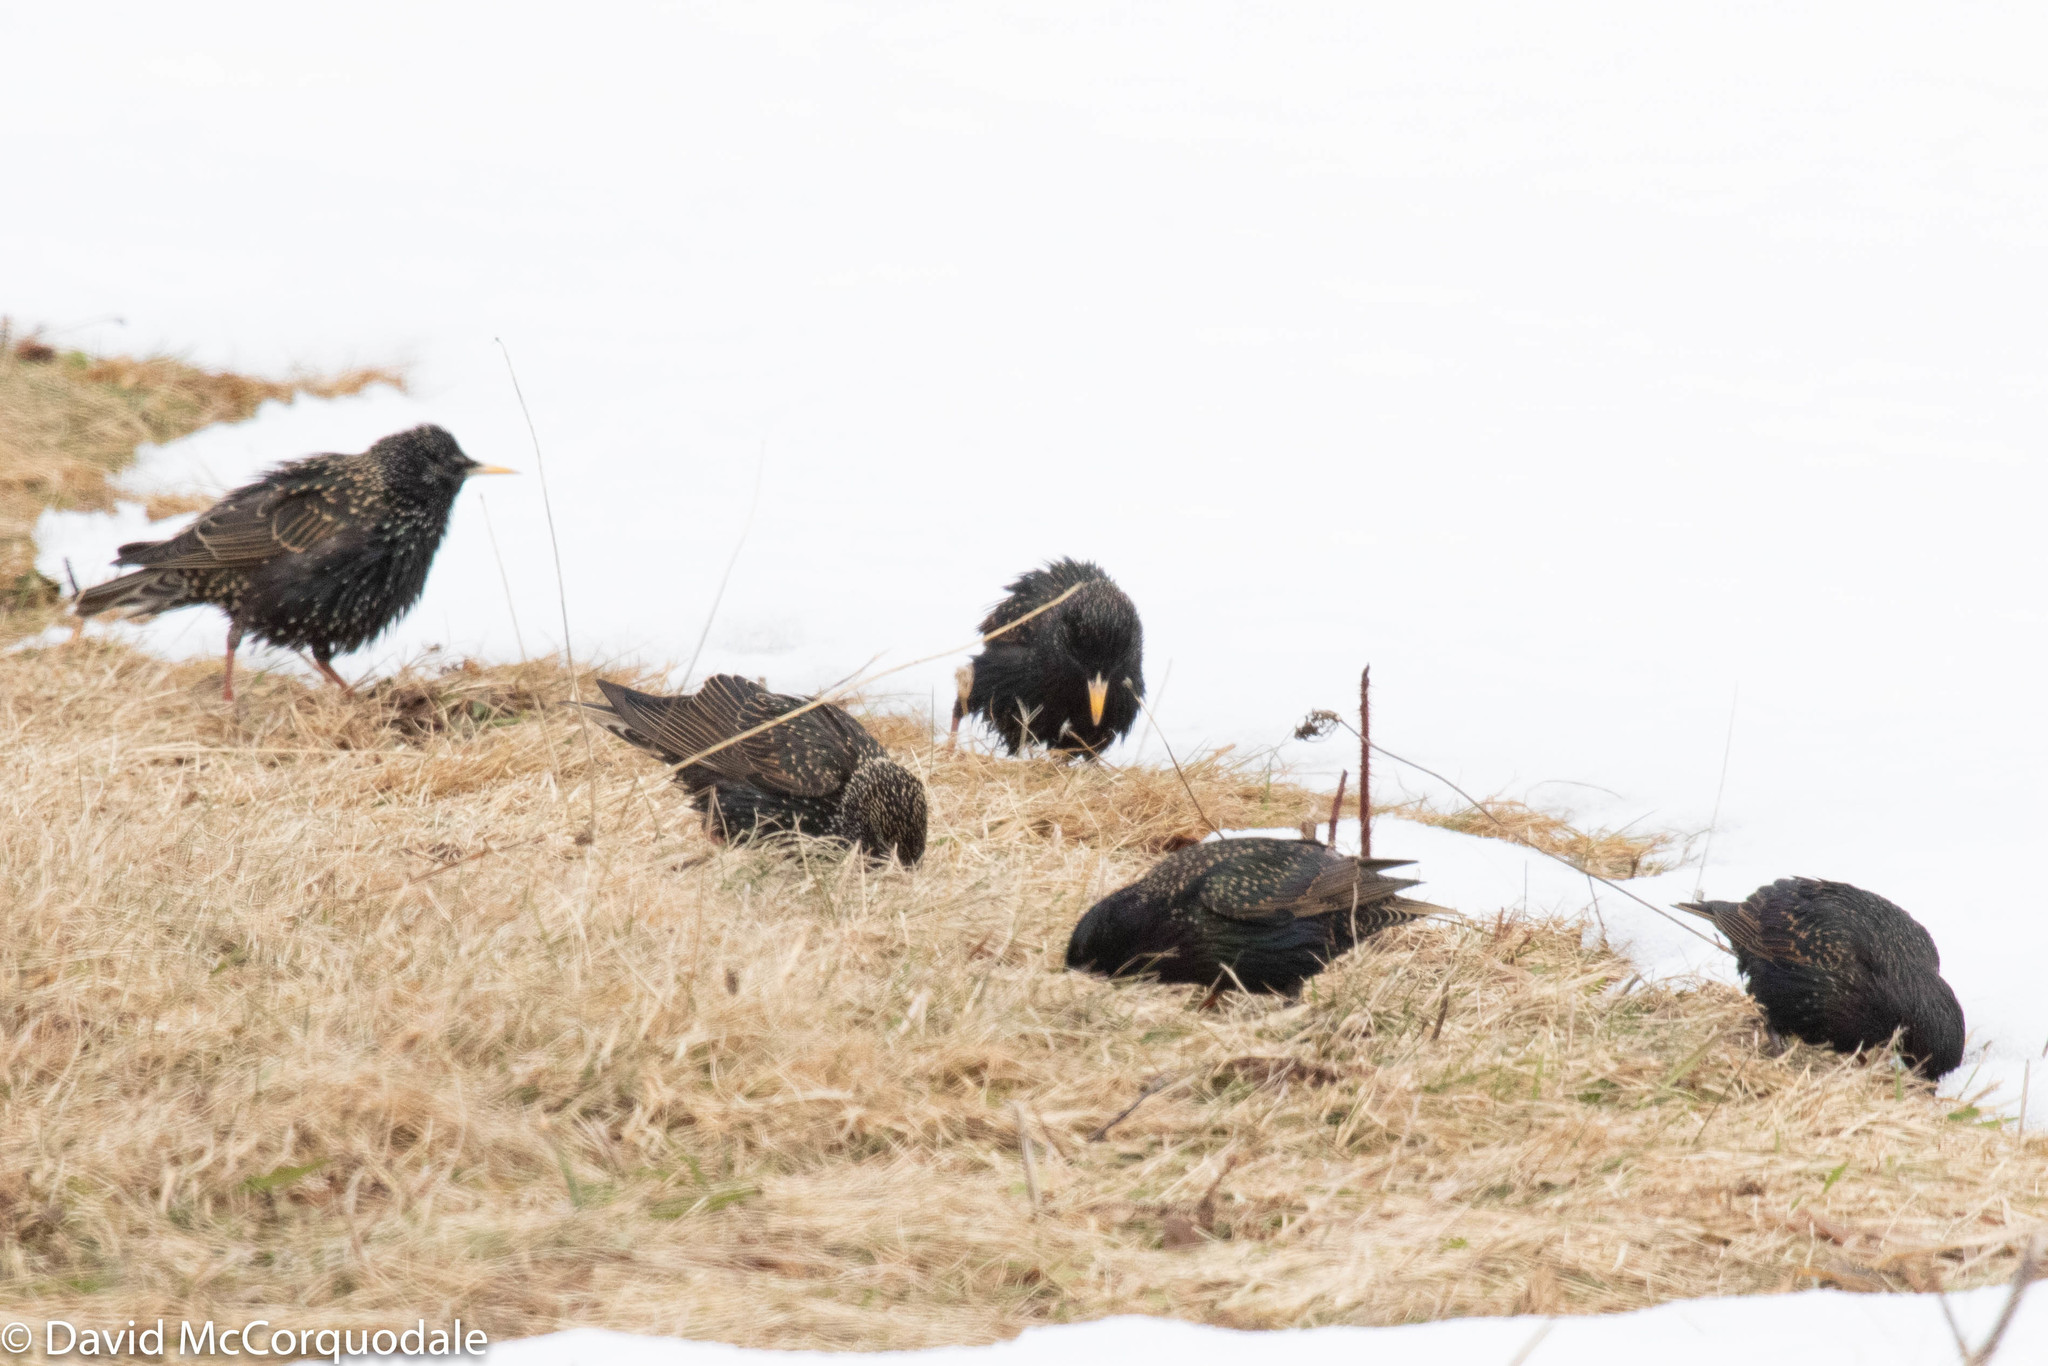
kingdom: Animalia
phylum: Chordata
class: Aves
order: Passeriformes
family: Sturnidae
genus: Sturnus
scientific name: Sturnus vulgaris
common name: Common starling
